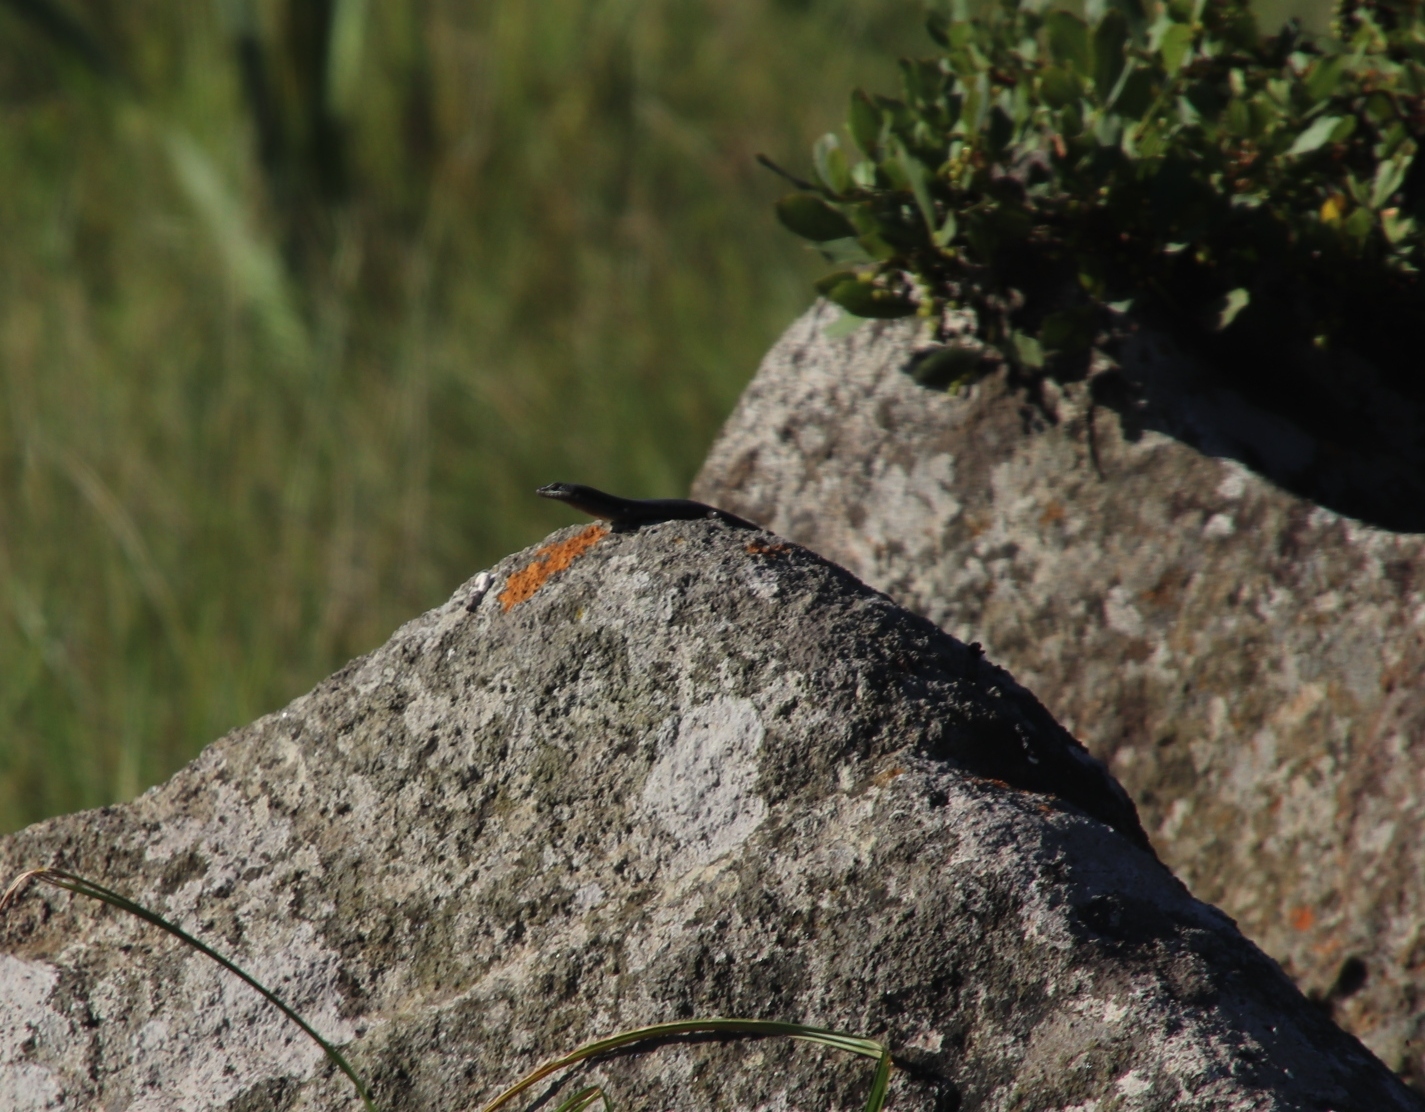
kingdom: Animalia
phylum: Chordata
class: Squamata
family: Scincidae
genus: Trachylepis
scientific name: Trachylepis striata
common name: African striped mabuya
